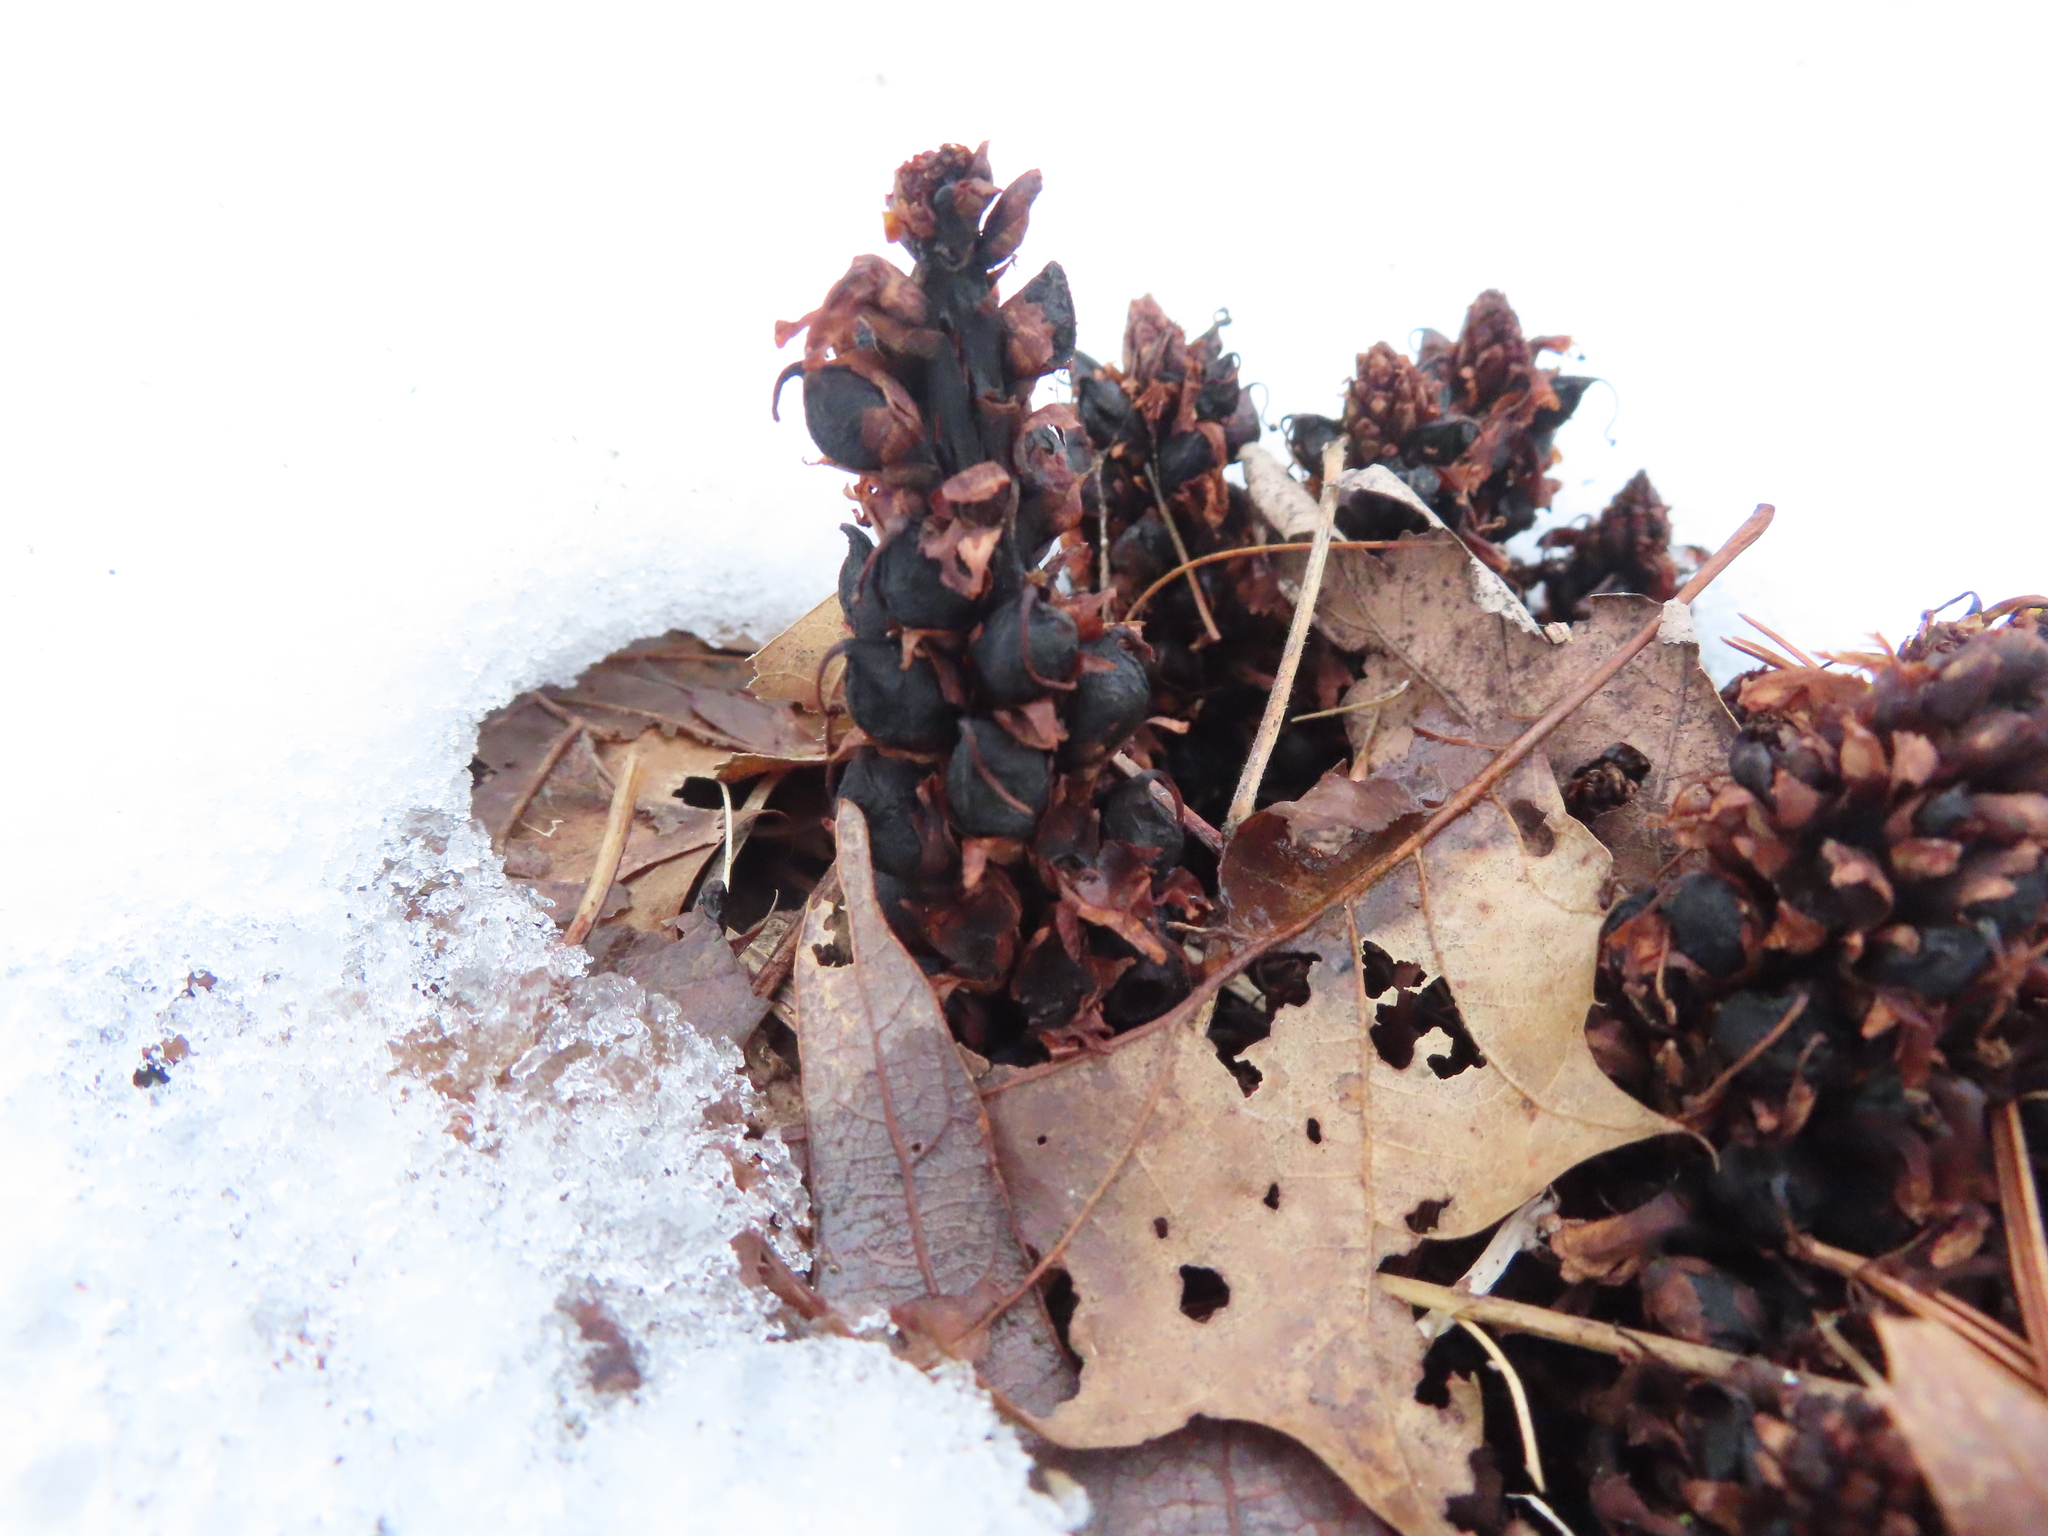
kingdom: Plantae
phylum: Tracheophyta
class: Magnoliopsida
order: Lamiales
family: Orobanchaceae
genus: Conopholis
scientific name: Conopholis americana
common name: American cancer-root
